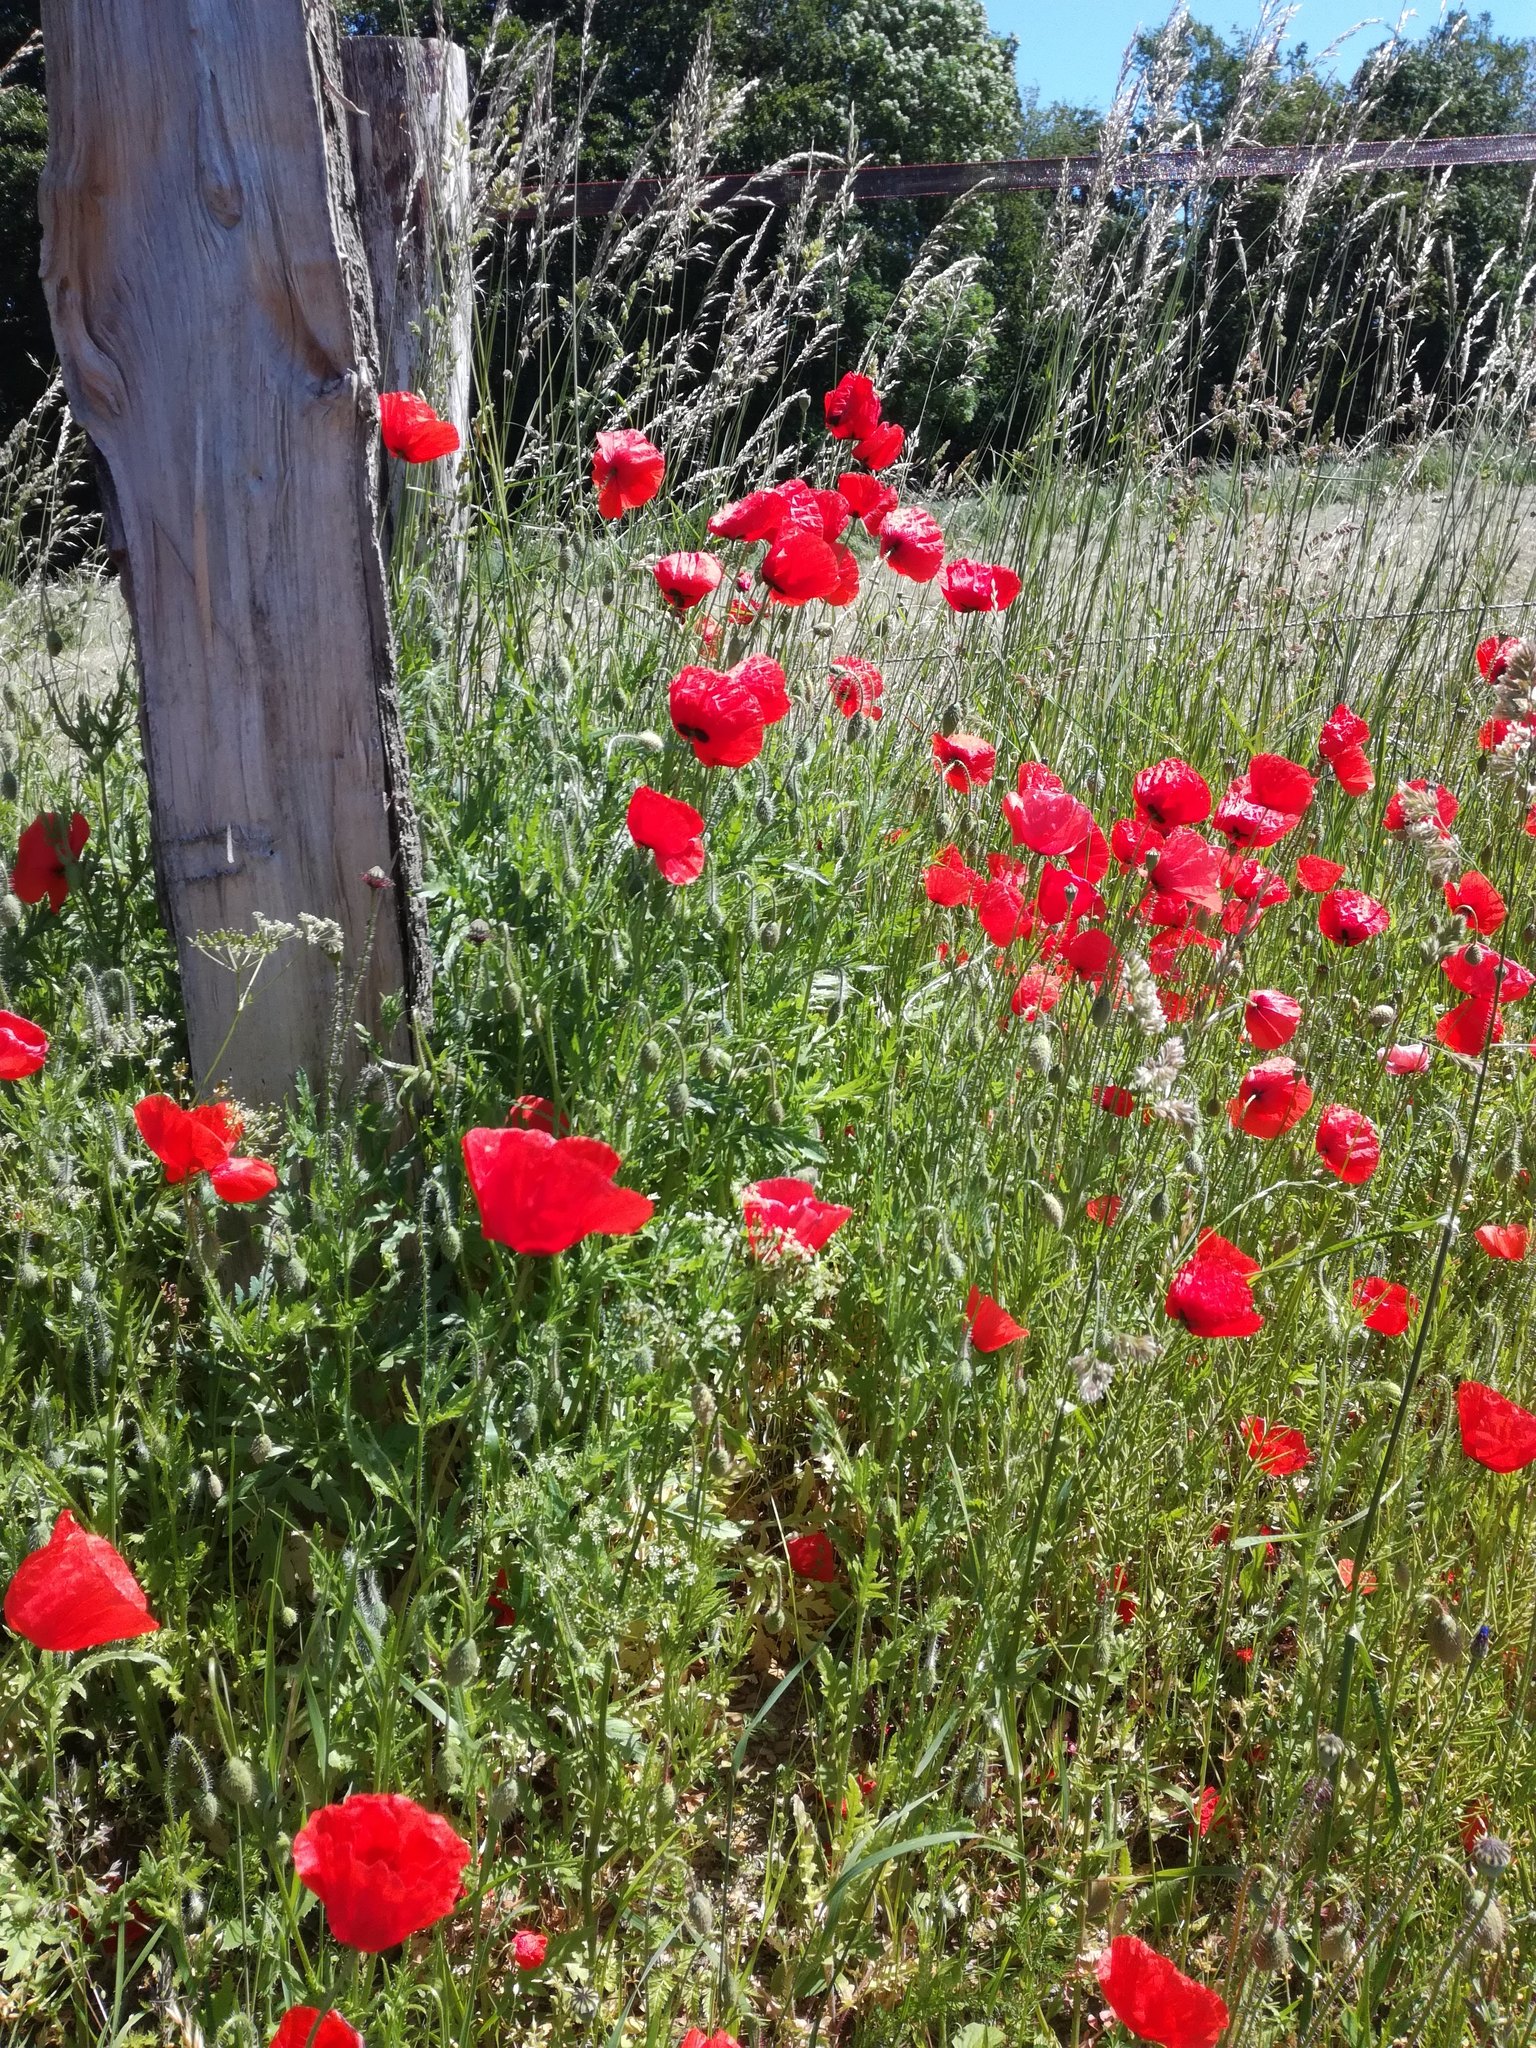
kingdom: Plantae
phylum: Tracheophyta
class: Magnoliopsida
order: Ranunculales
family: Papaveraceae
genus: Papaver
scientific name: Papaver rhoeas
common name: Corn poppy
